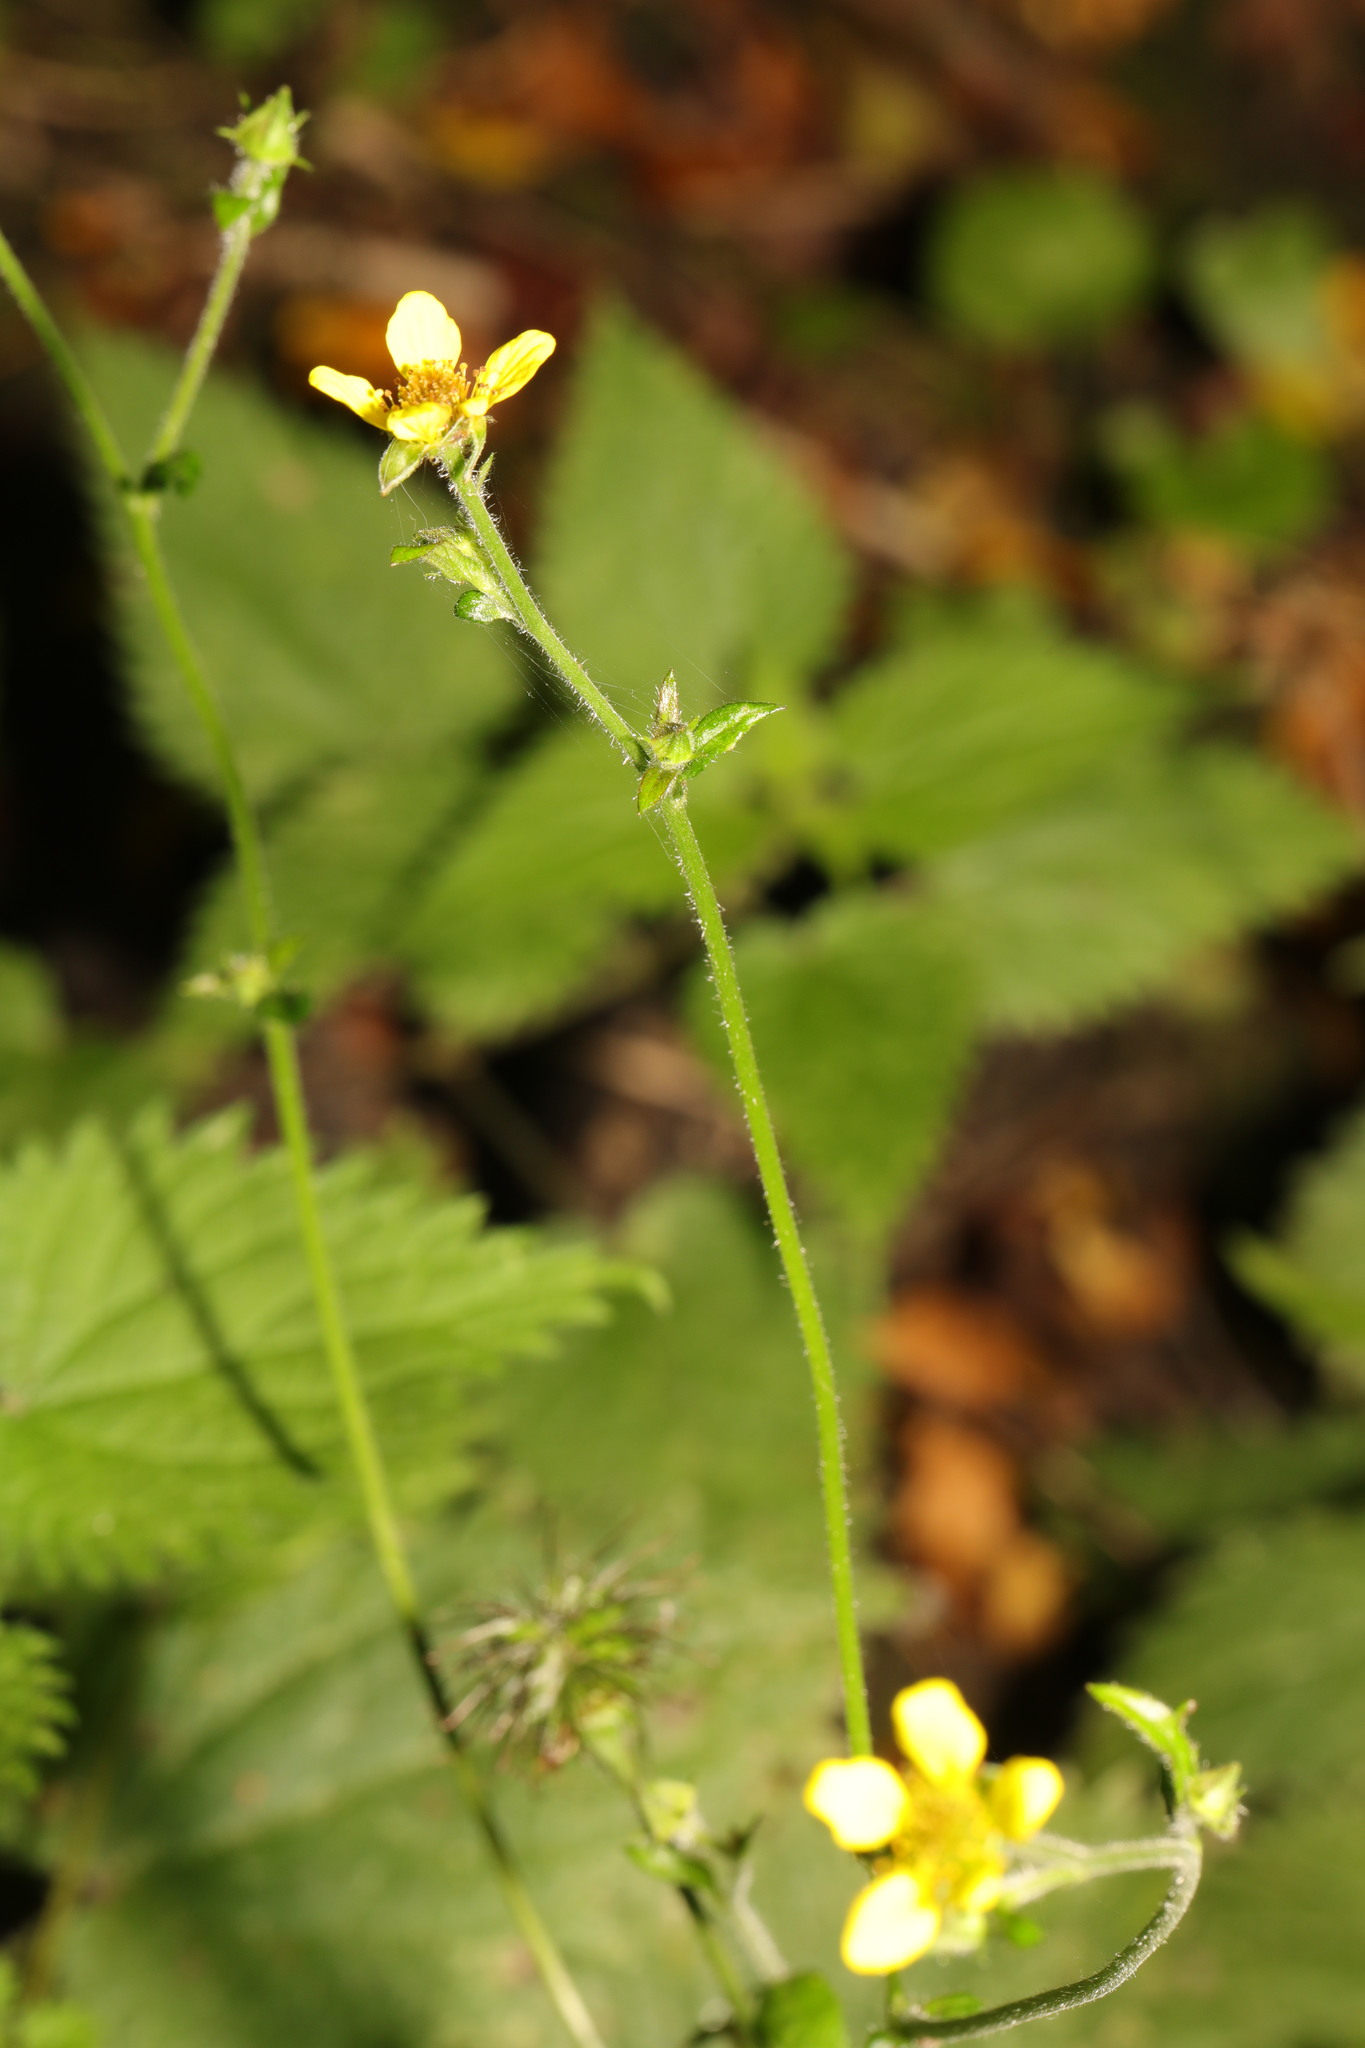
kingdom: Plantae
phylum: Tracheophyta
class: Magnoliopsida
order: Rosales
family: Rosaceae
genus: Geum
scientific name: Geum urbanum
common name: Wood avens
